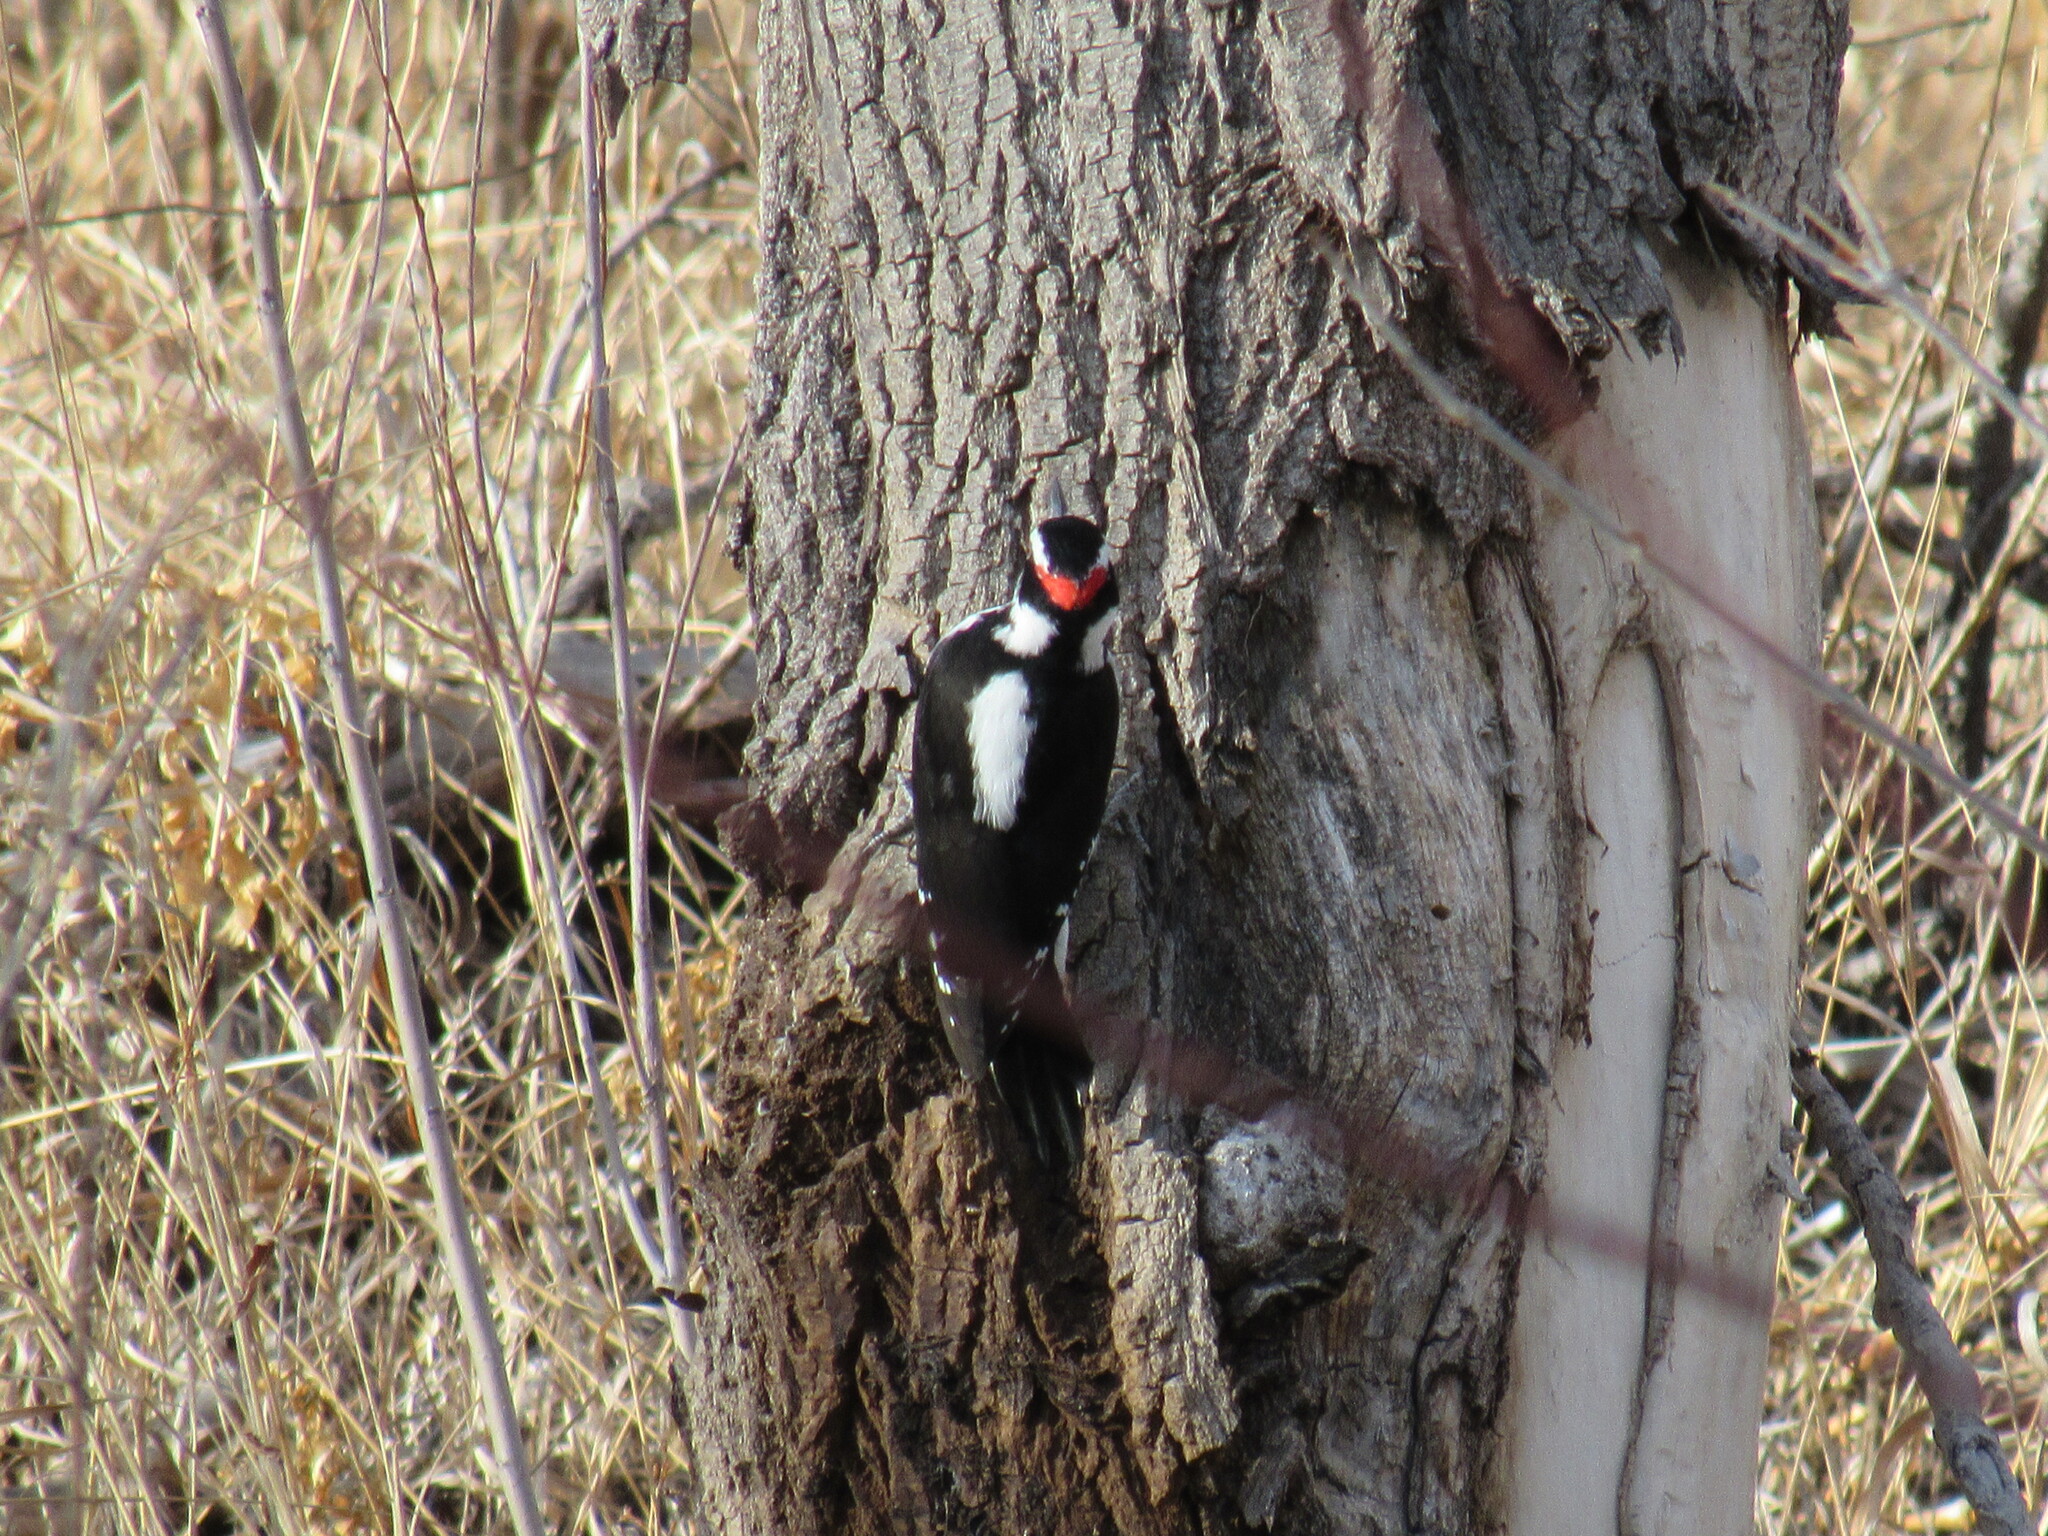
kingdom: Animalia
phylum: Chordata
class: Aves
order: Piciformes
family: Picidae
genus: Leuconotopicus
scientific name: Leuconotopicus villosus
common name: Hairy woodpecker
